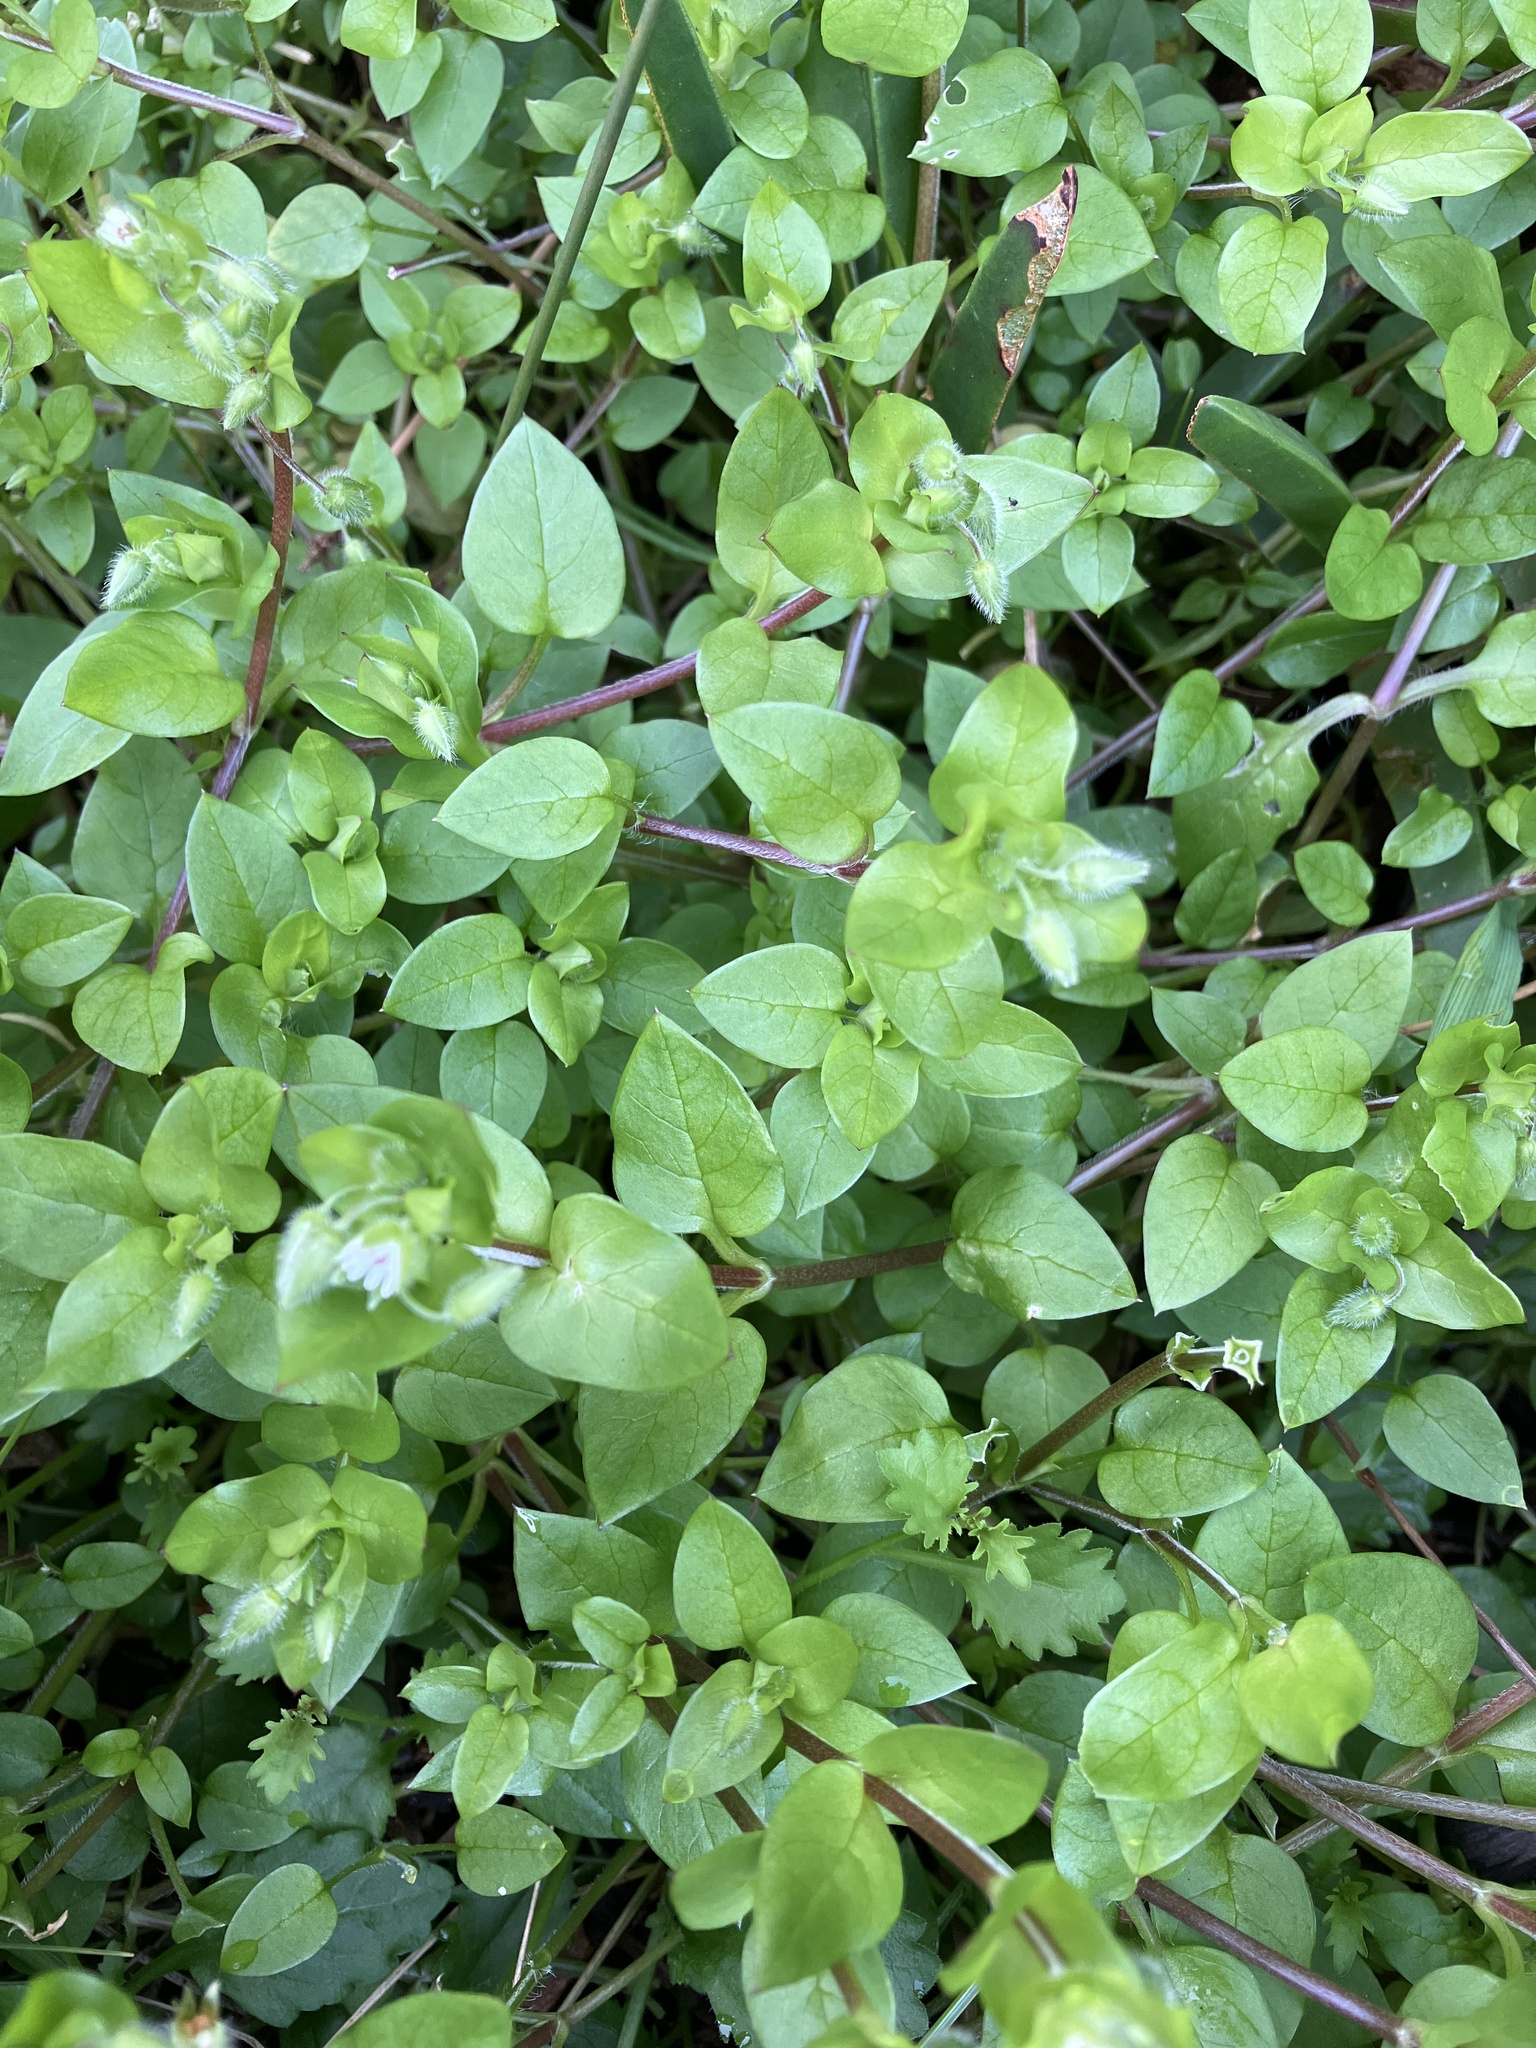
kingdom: Plantae
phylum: Tracheophyta
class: Magnoliopsida
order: Caryophyllales
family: Caryophyllaceae
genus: Stellaria
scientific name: Stellaria media
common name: Common chickweed
